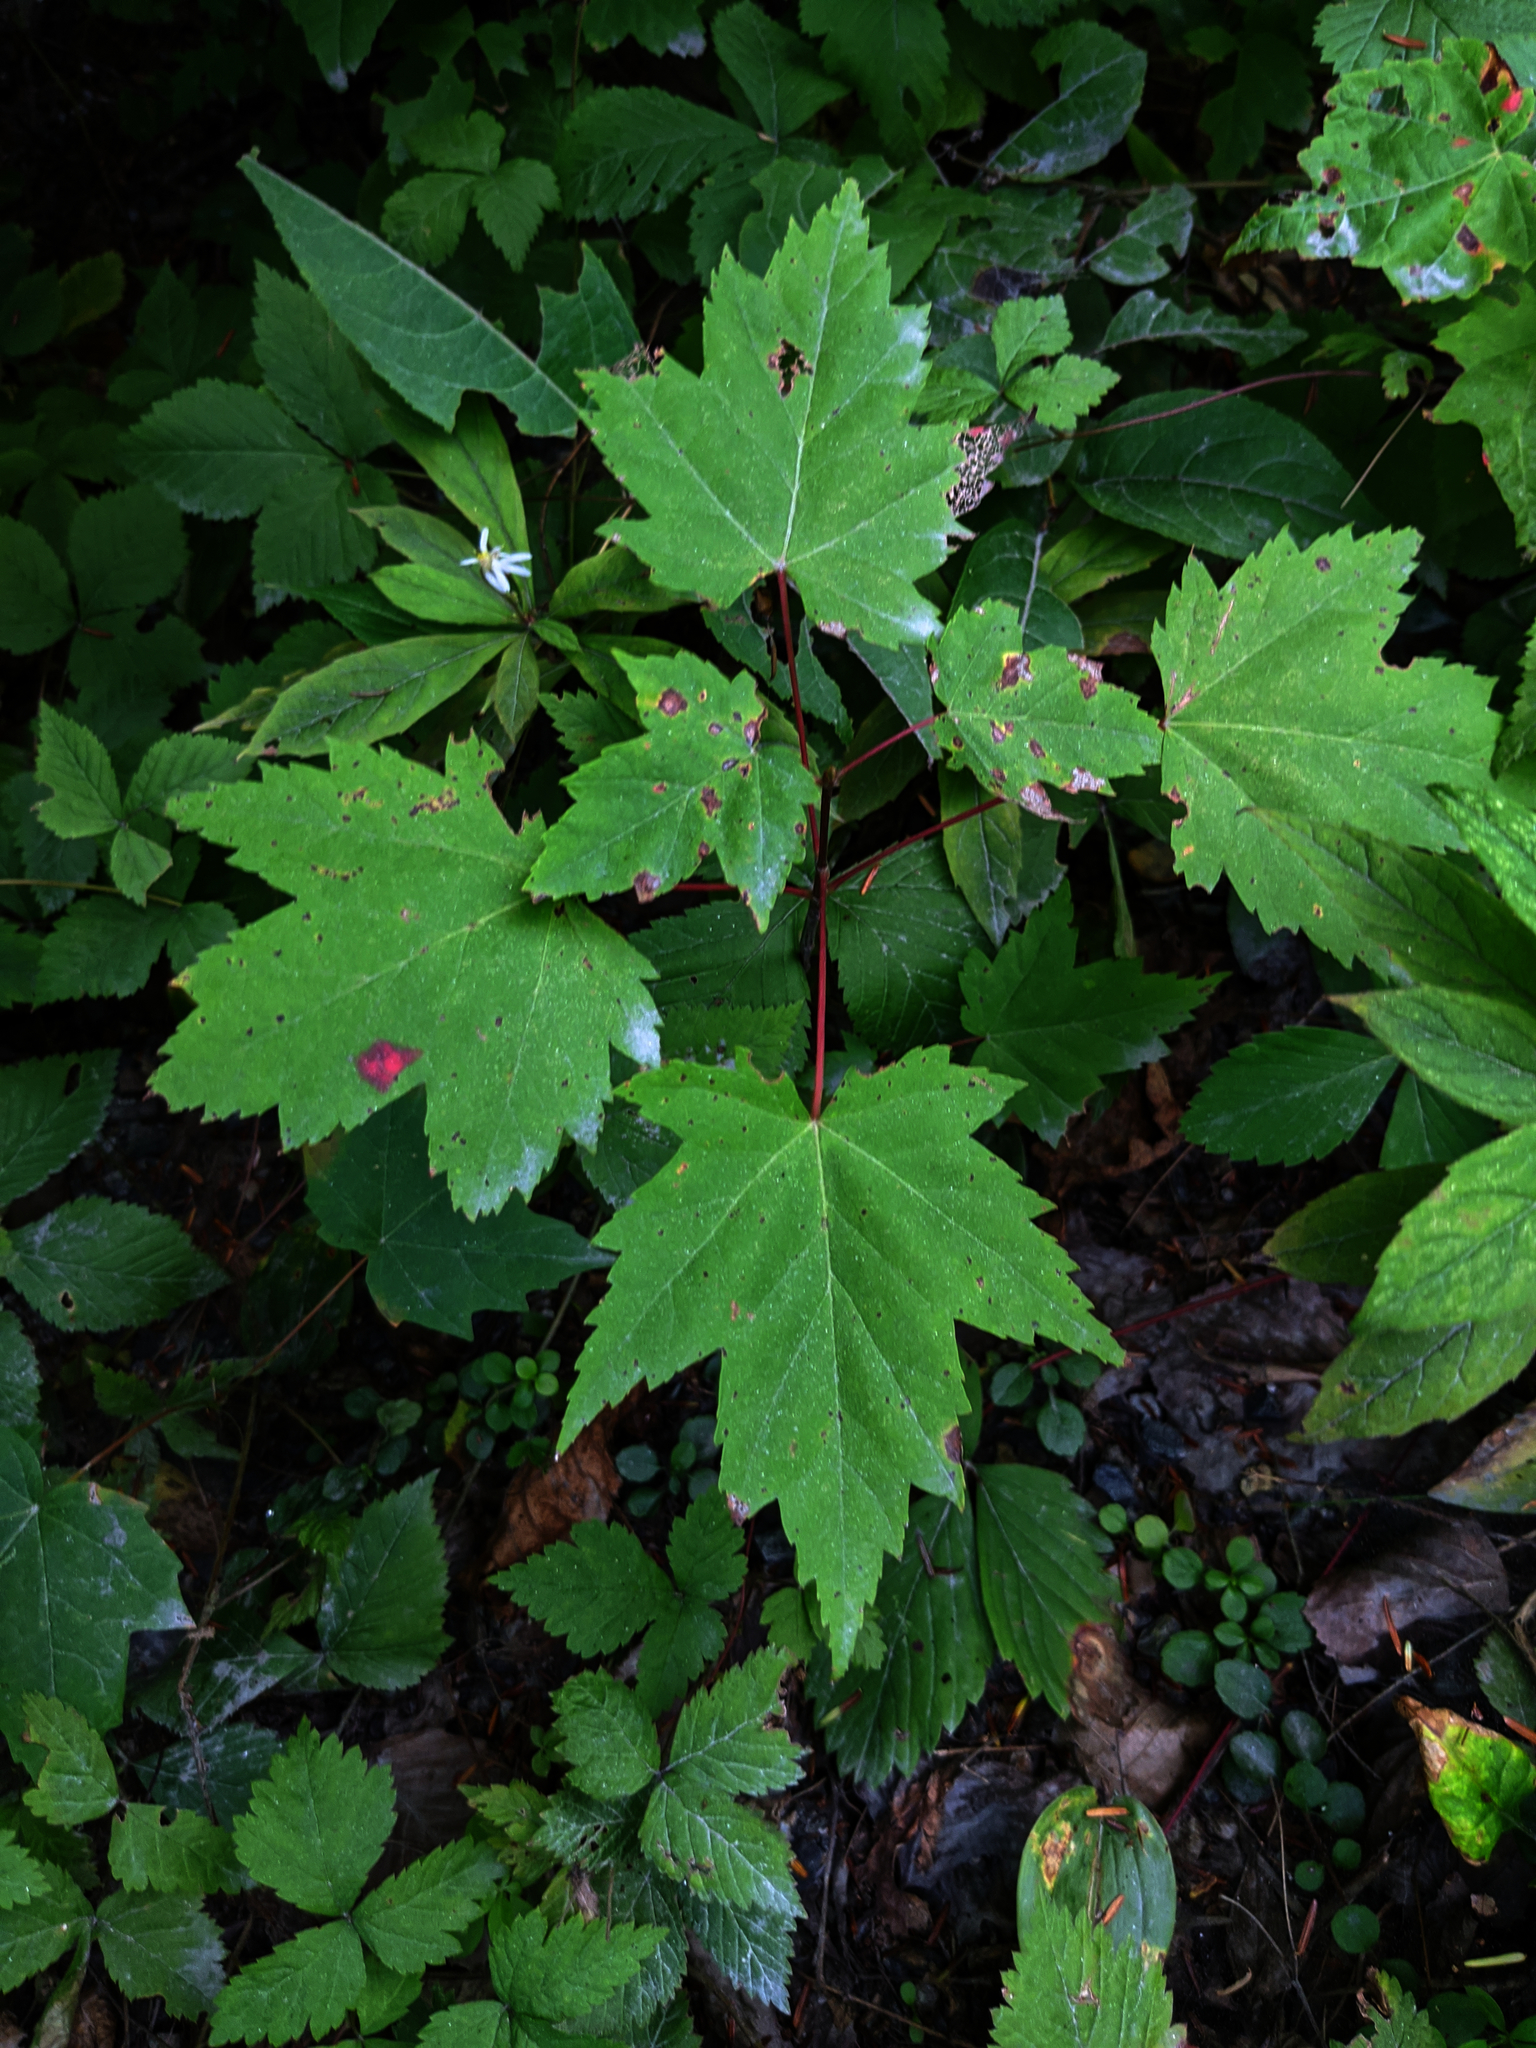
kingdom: Plantae
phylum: Tracheophyta
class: Magnoliopsida
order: Sapindales
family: Sapindaceae
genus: Acer
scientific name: Acer rubrum
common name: Red maple
